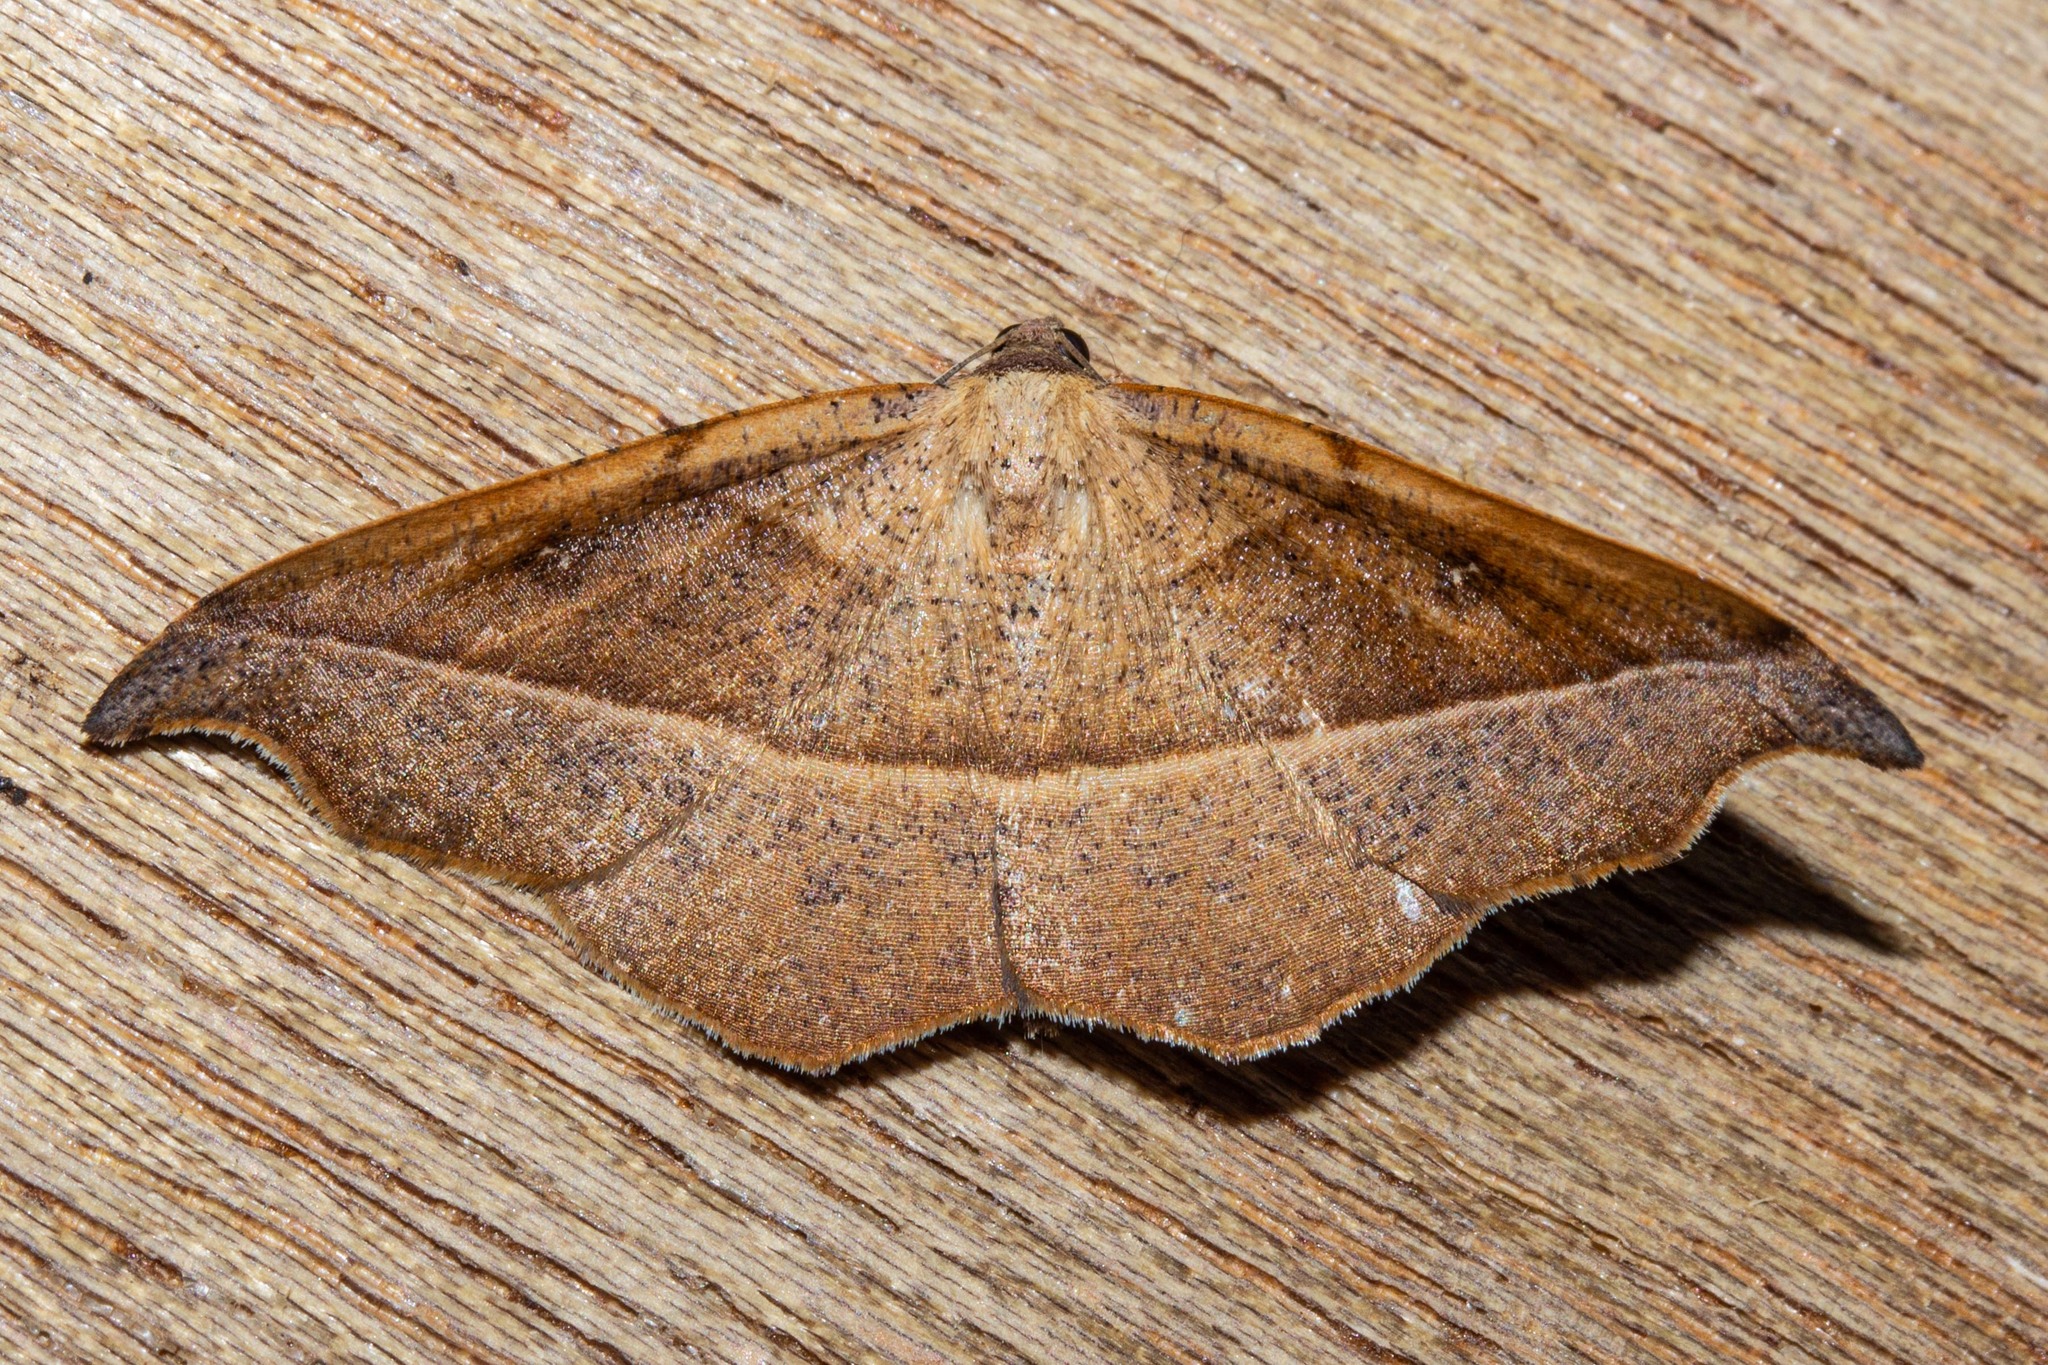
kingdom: Animalia
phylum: Arthropoda
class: Insecta
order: Lepidoptera
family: Geometridae
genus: Sarisa
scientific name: Sarisa muriferata
